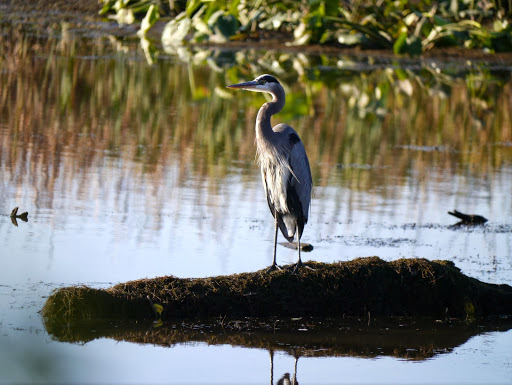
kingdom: Animalia
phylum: Chordata
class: Aves
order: Pelecaniformes
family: Ardeidae
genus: Ardea
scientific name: Ardea herodias
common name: Great blue heron
